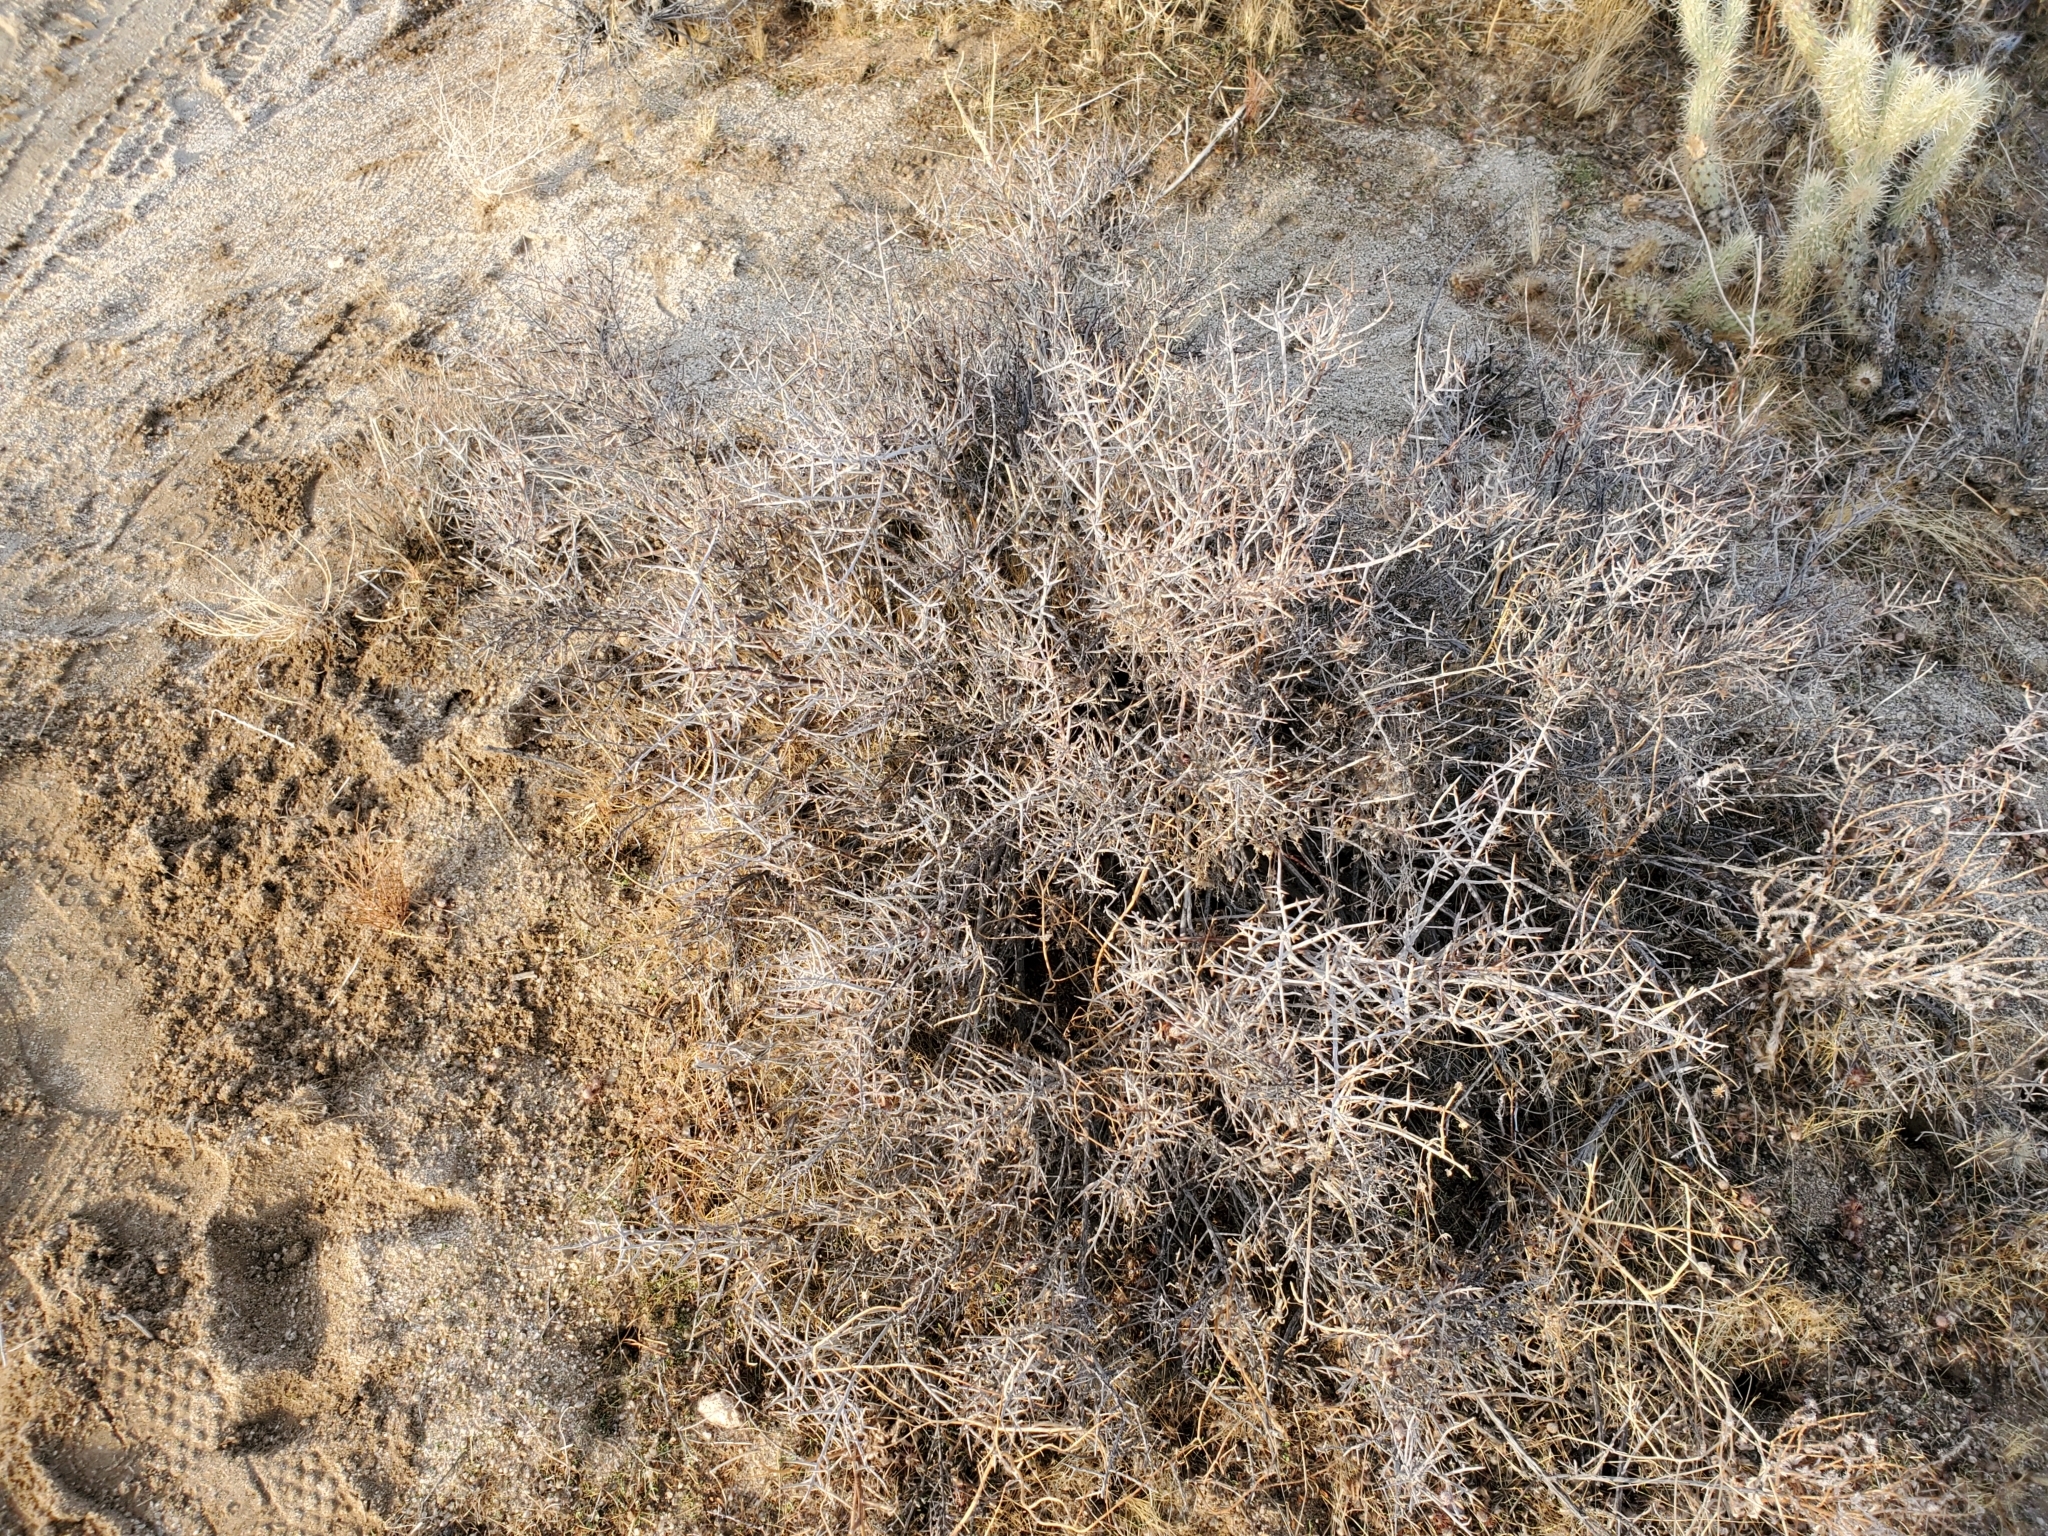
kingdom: Plantae
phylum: Tracheophyta
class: Magnoliopsida
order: Zygophyllales
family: Krameriaceae
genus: Krameria
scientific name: Krameria bicolor
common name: White ratany
